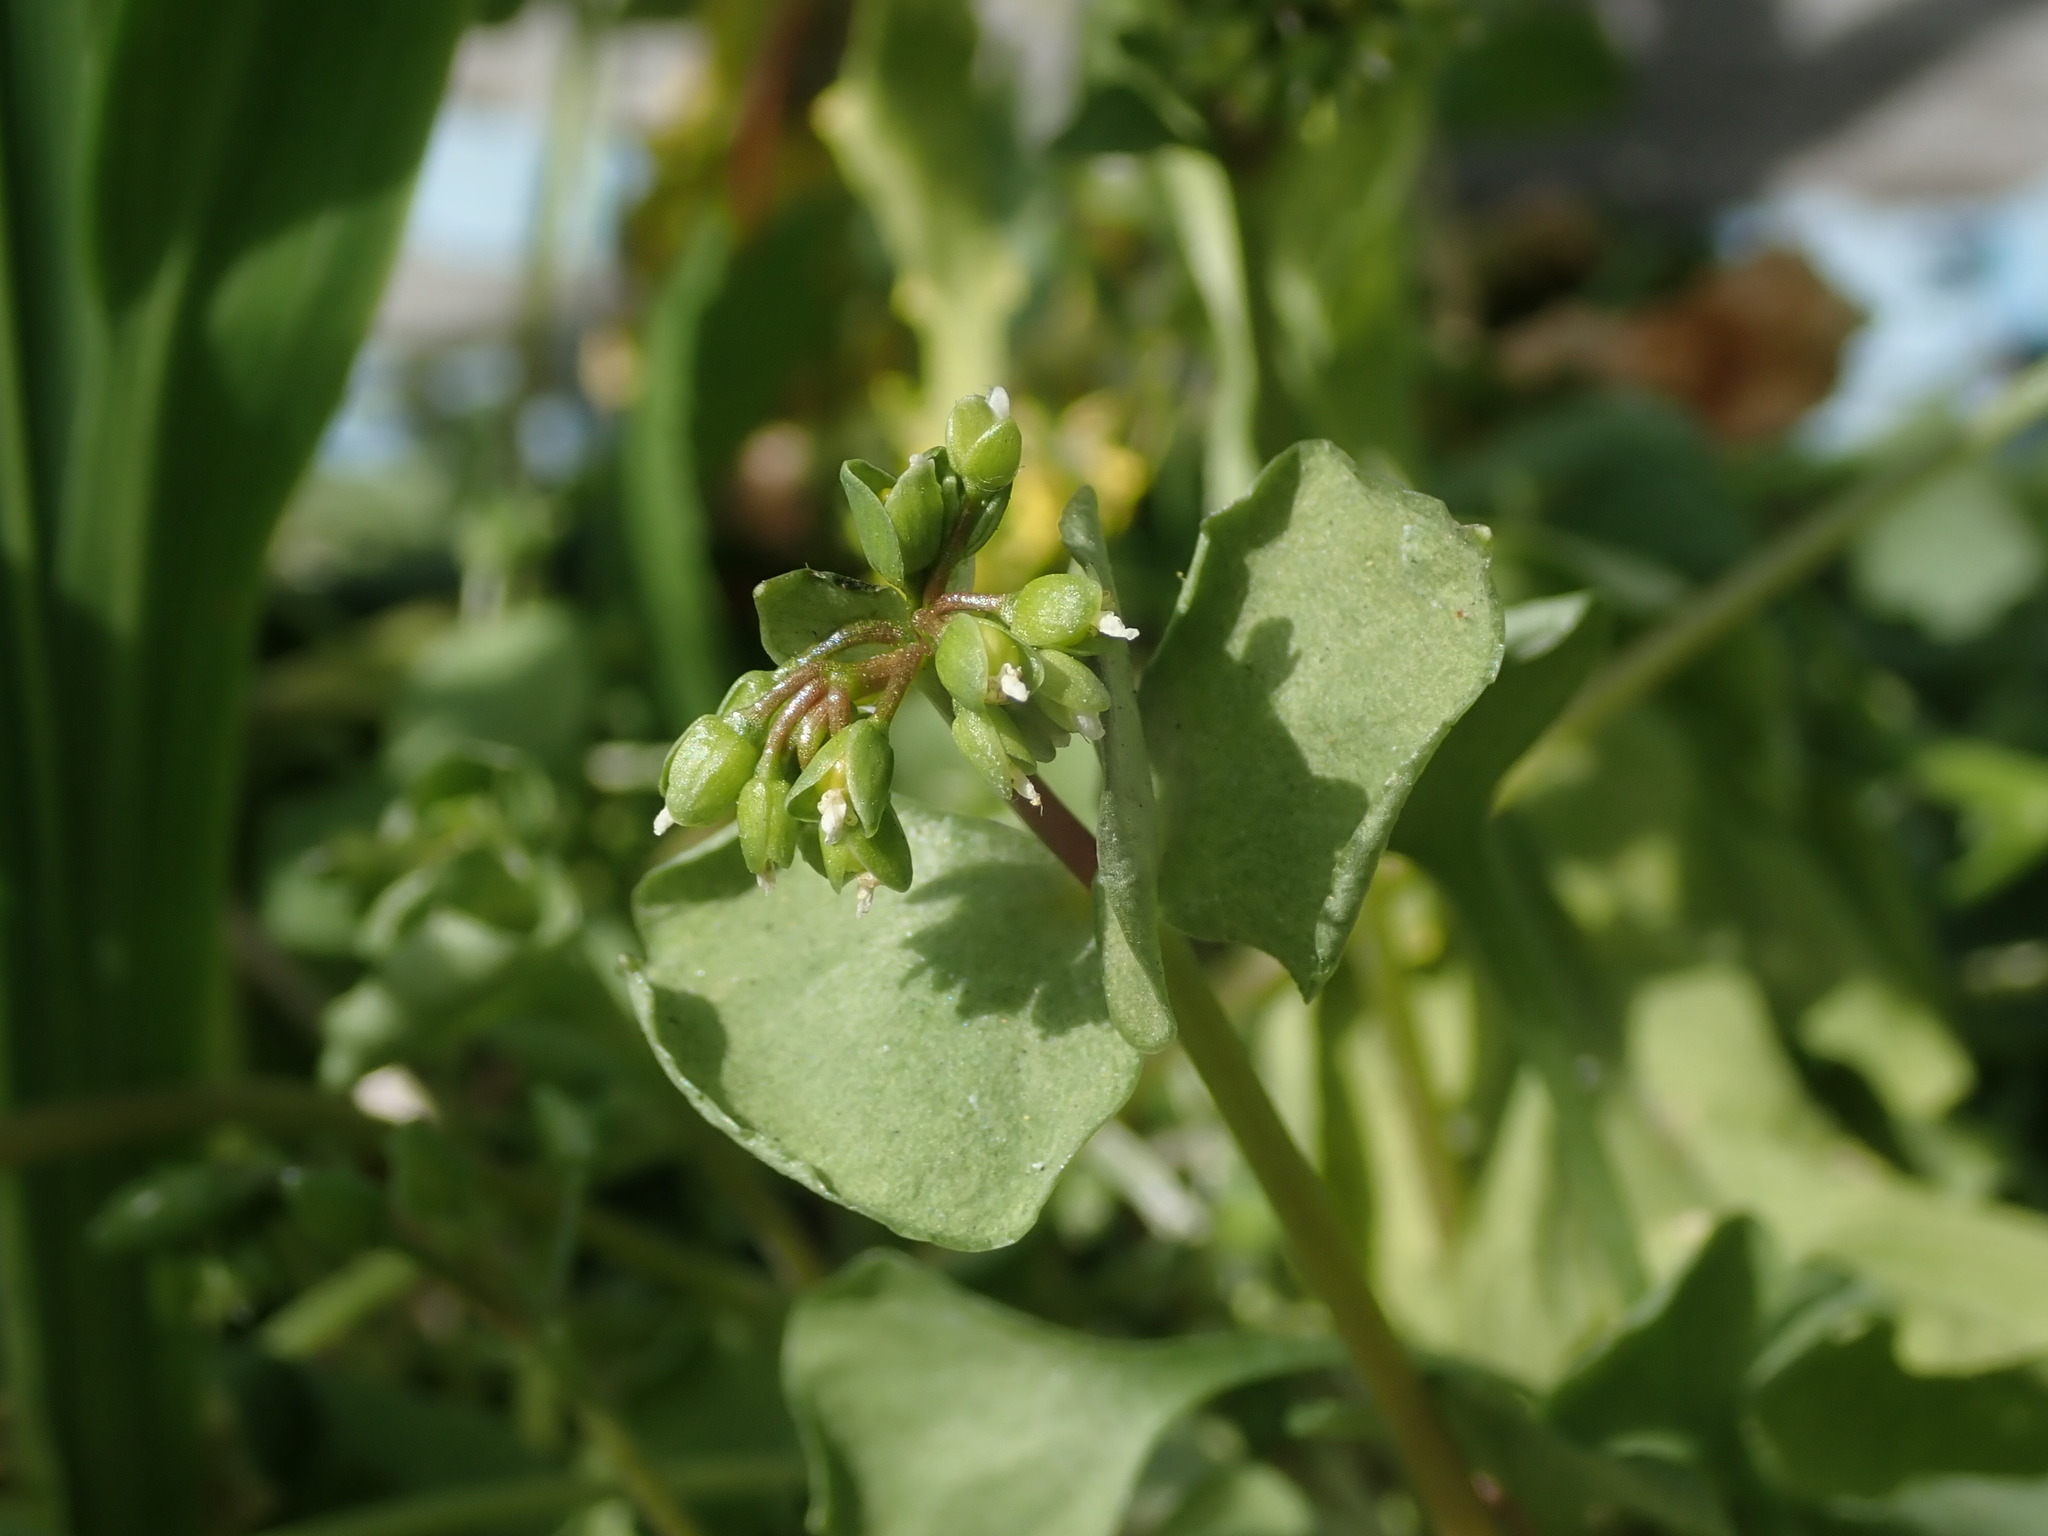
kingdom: Plantae
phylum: Tracheophyta
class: Magnoliopsida
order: Caryophyllales
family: Montiaceae
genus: Claytonia
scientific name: Claytonia perfoliata
